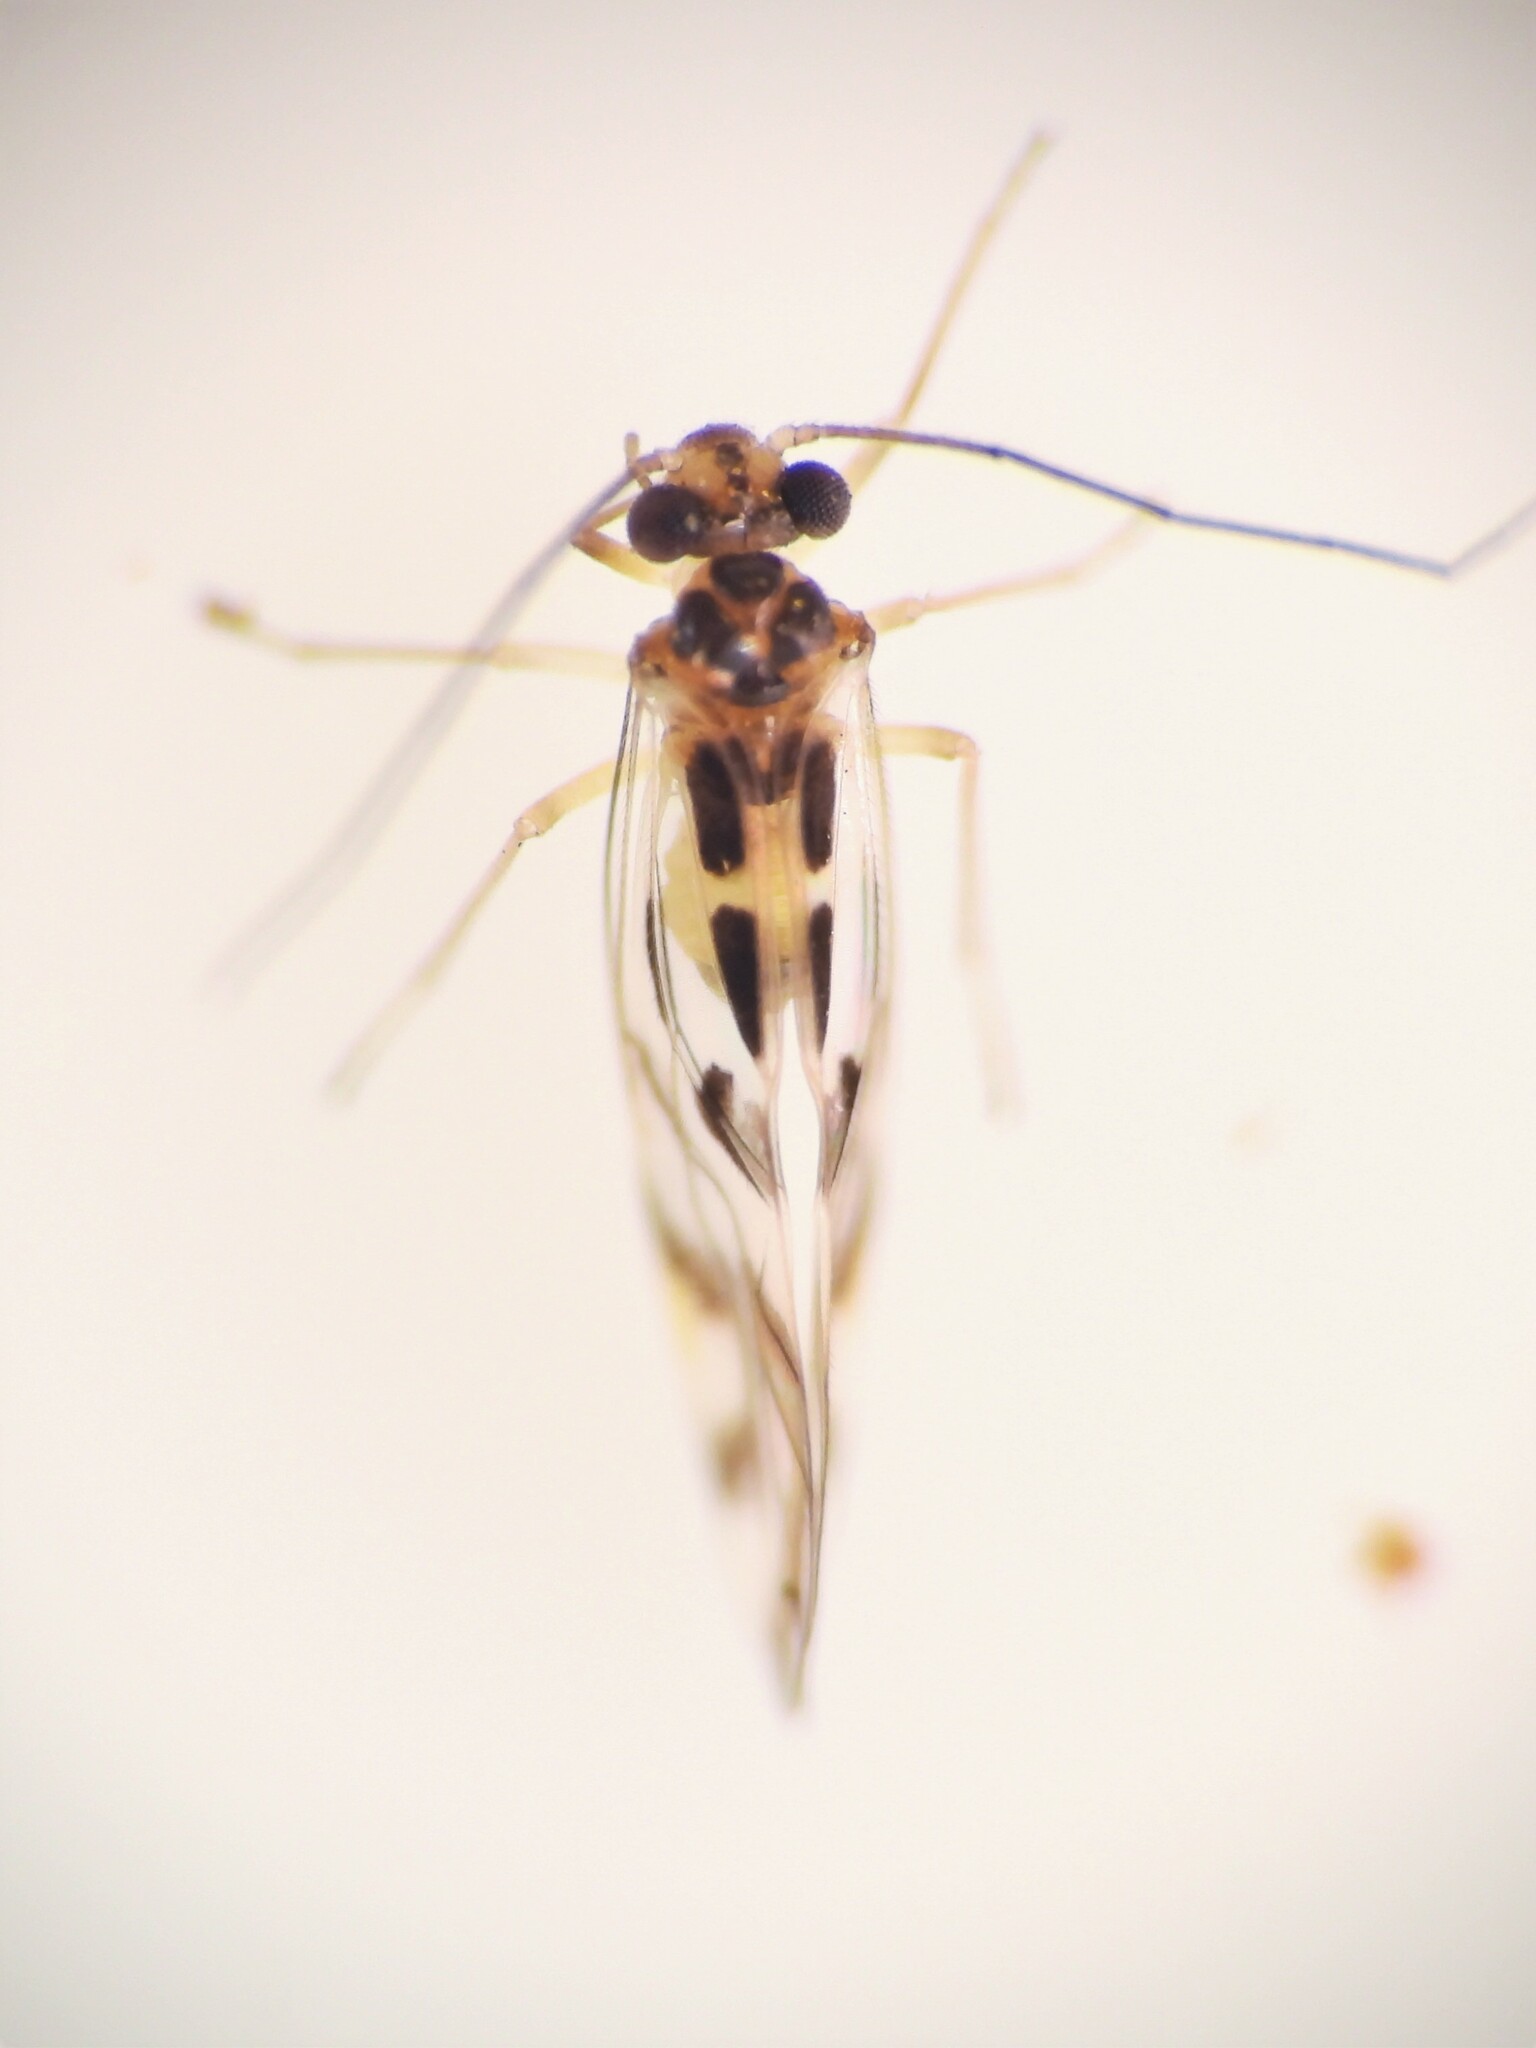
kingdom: Animalia
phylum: Arthropoda
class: Insecta
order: Psocodea
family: Stenopsocidae
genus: Graphopsocus
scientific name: Graphopsocus cruciatus
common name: Lizard bark louse
